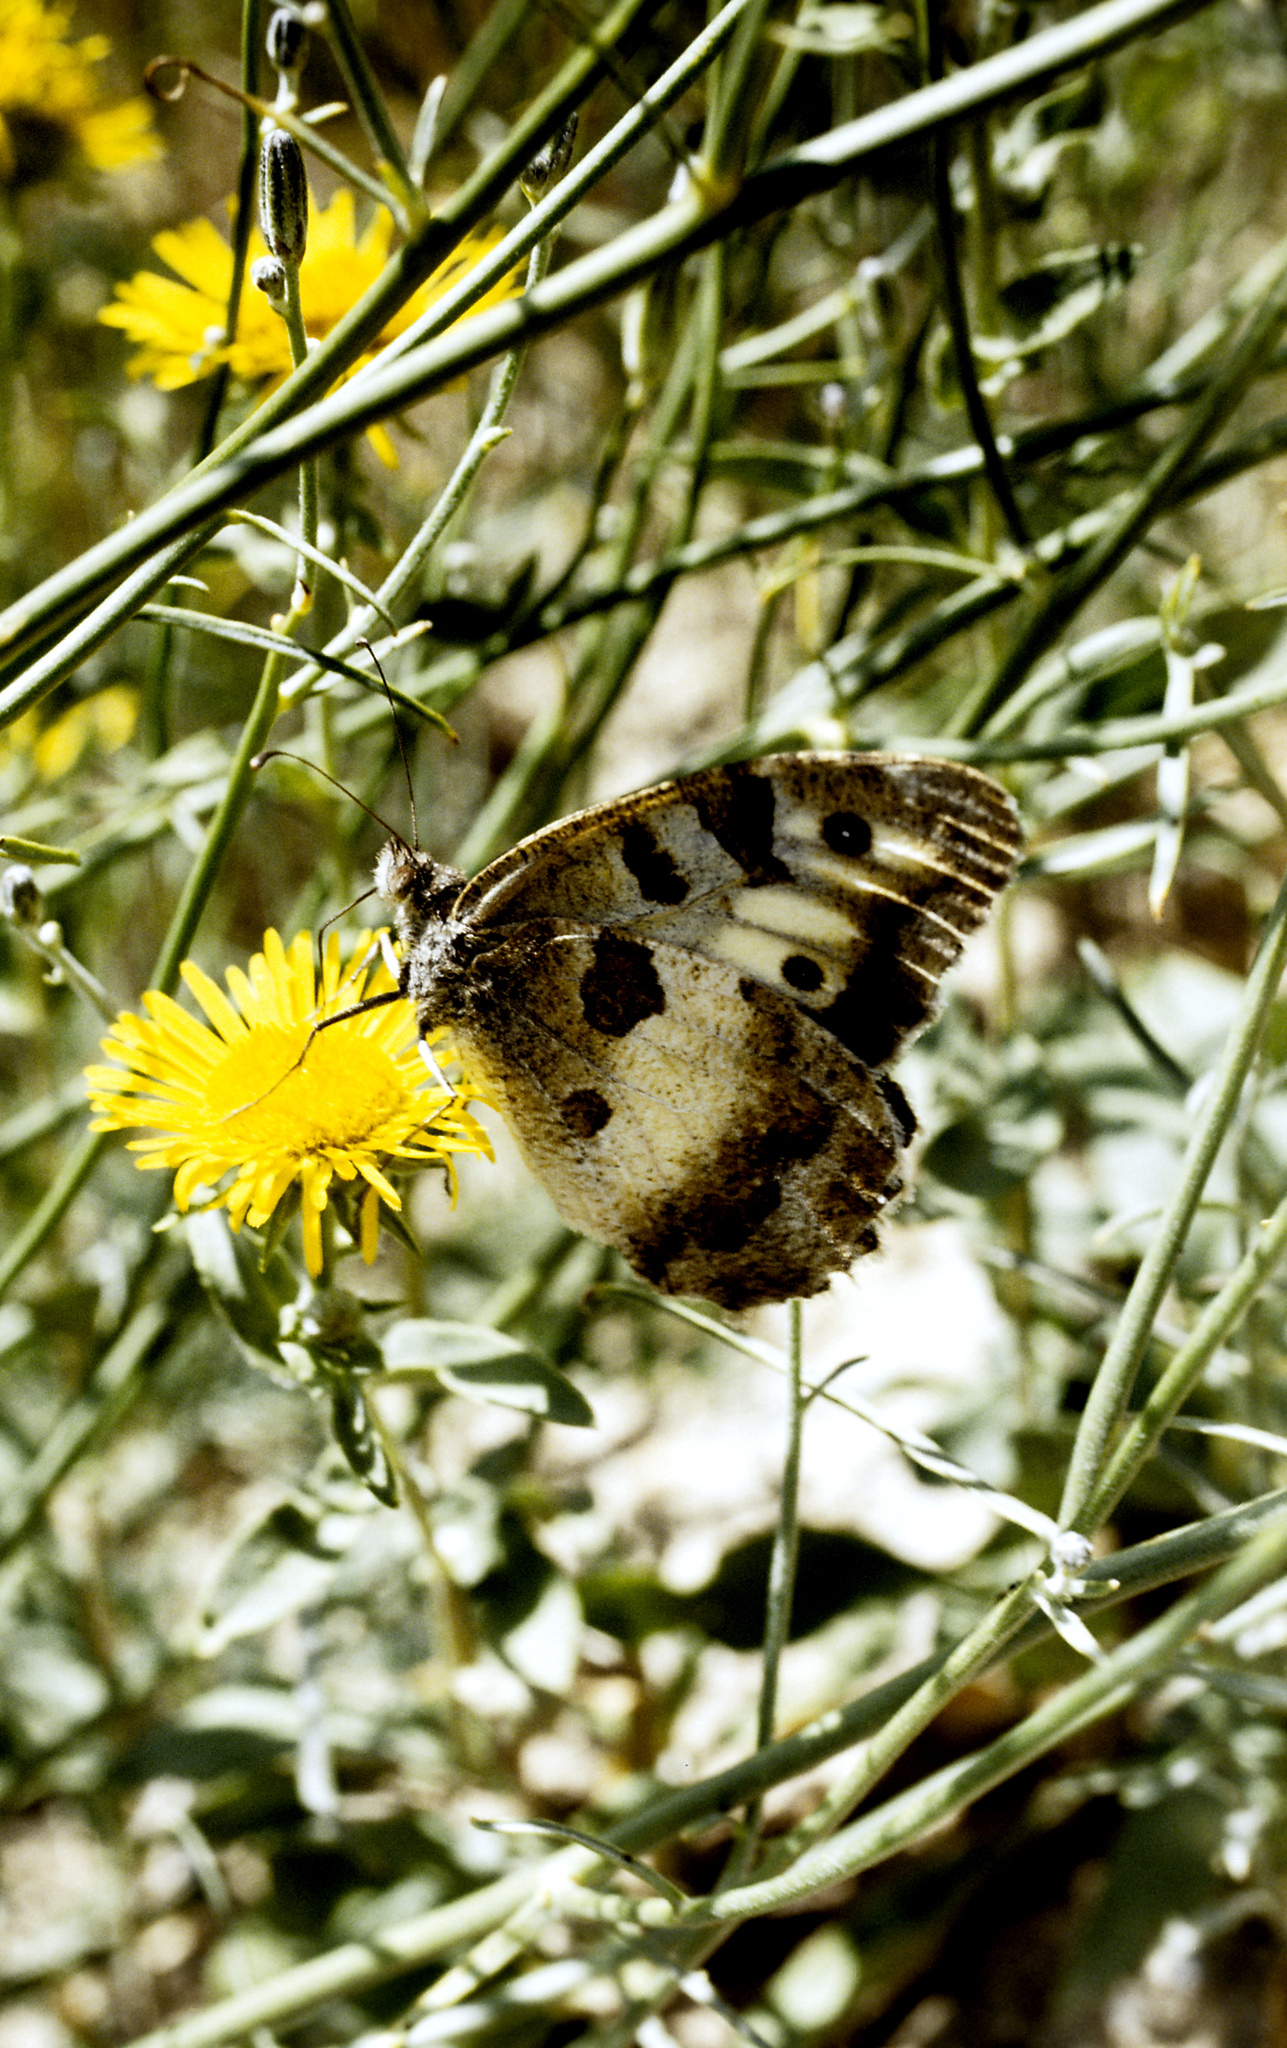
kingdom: Animalia
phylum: Arthropoda
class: Insecta
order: Lepidoptera
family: Nymphalidae
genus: Satyrus
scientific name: Satyrus briseis
